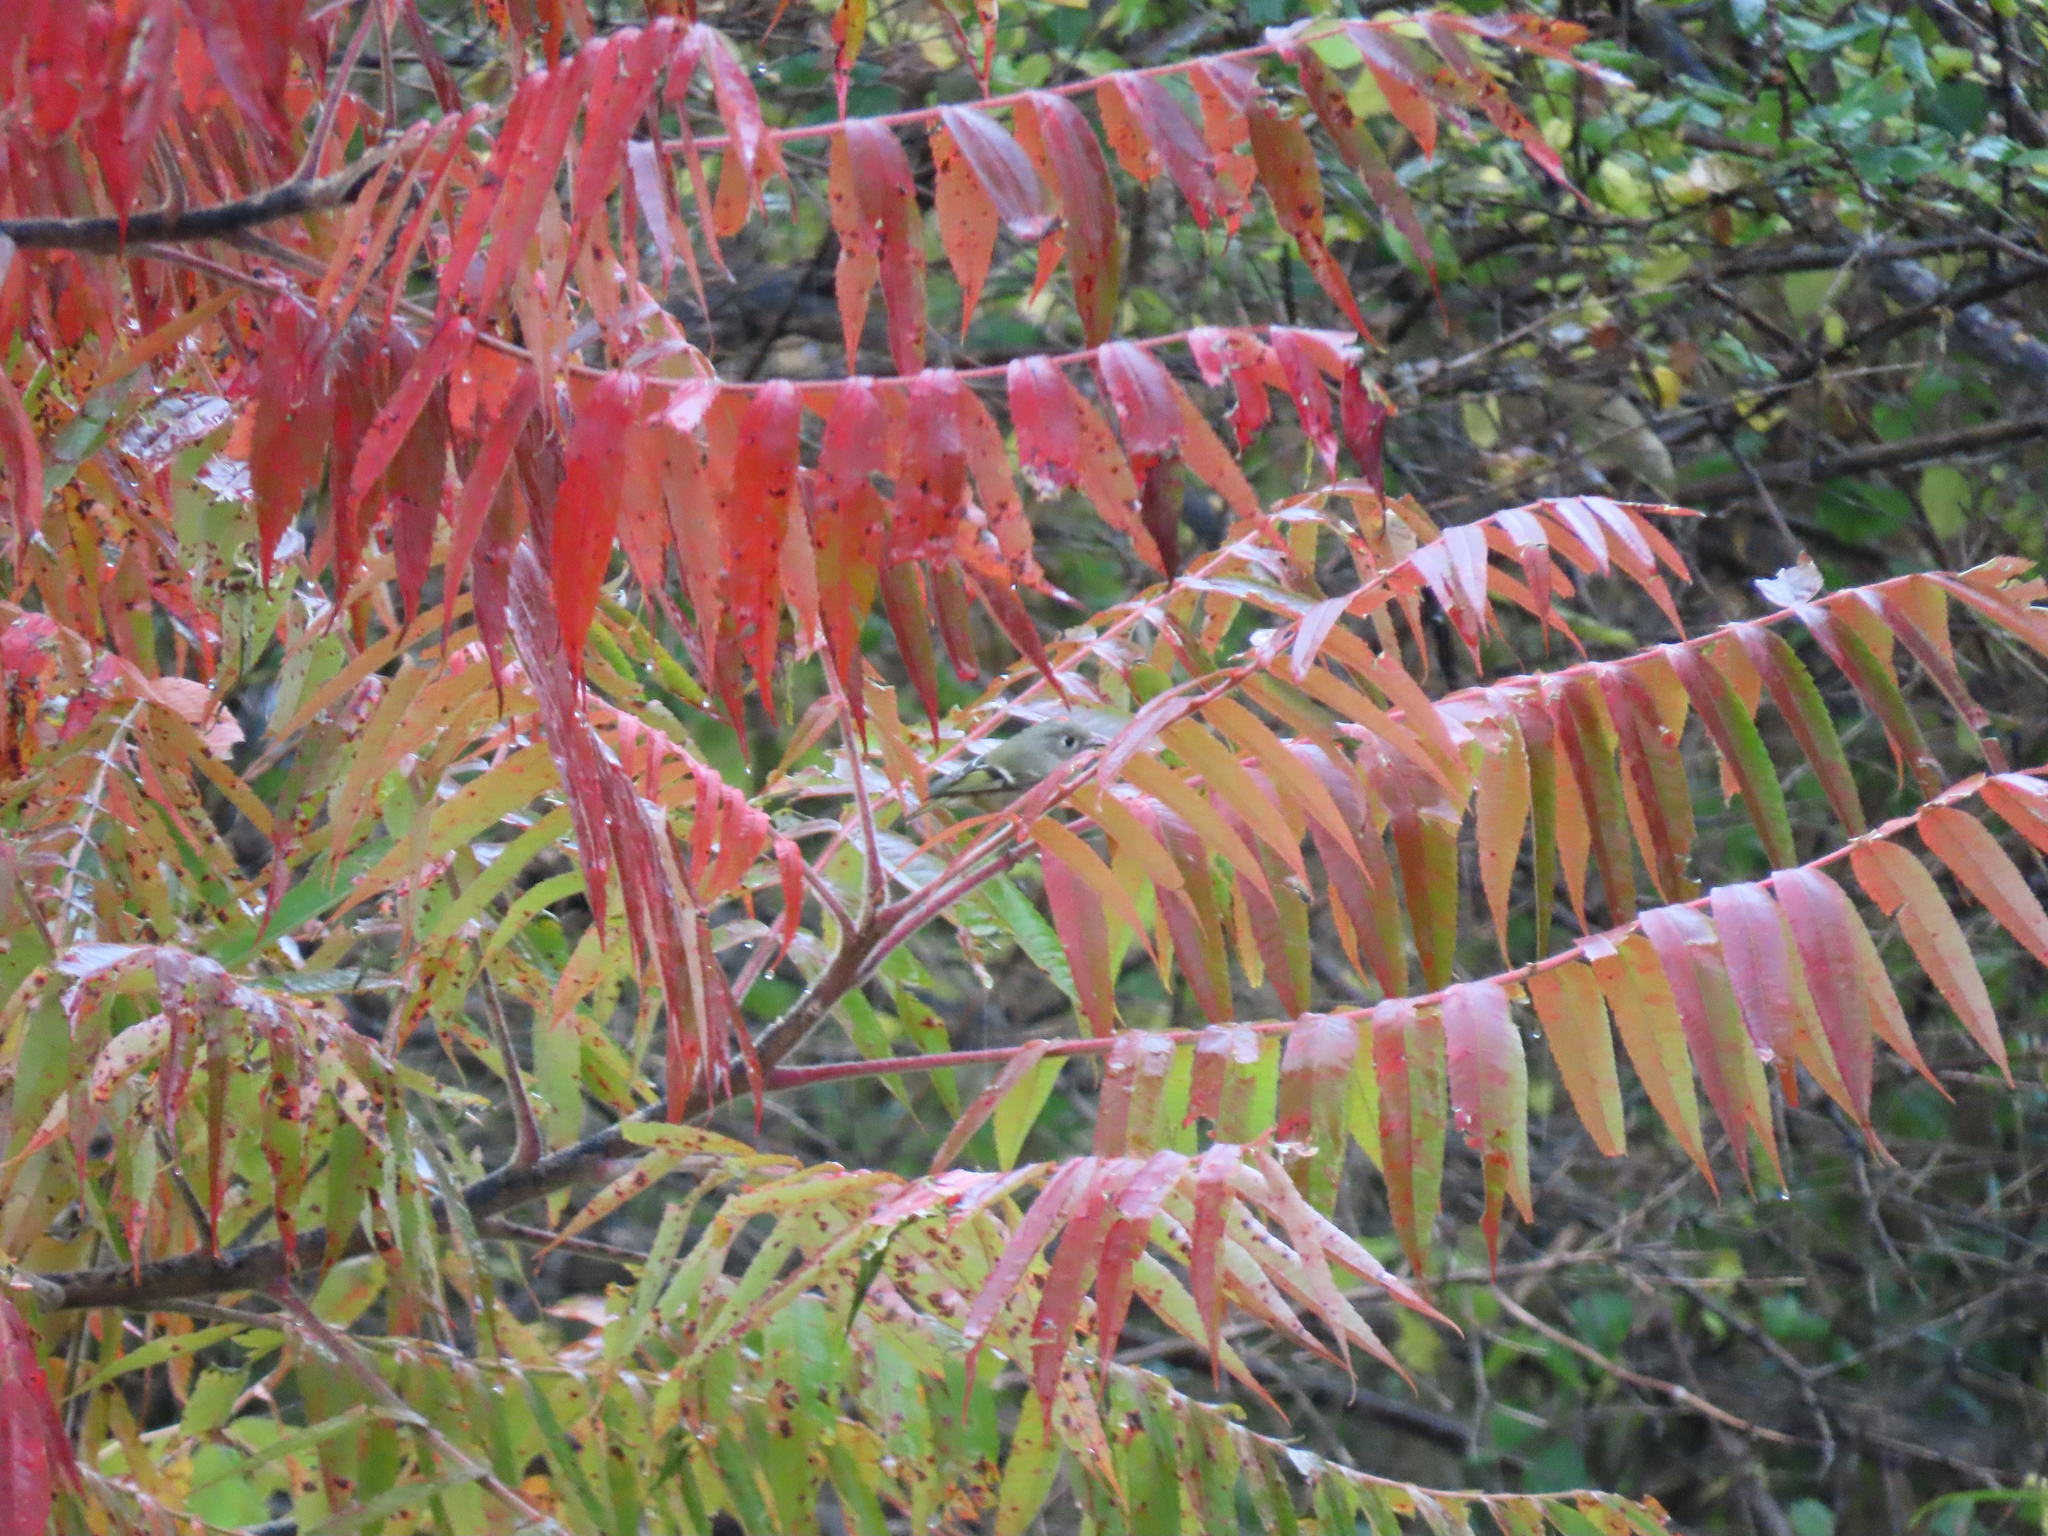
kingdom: Animalia
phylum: Chordata
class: Aves
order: Passeriformes
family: Regulidae
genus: Regulus
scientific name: Regulus calendula
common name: Ruby-crowned kinglet
